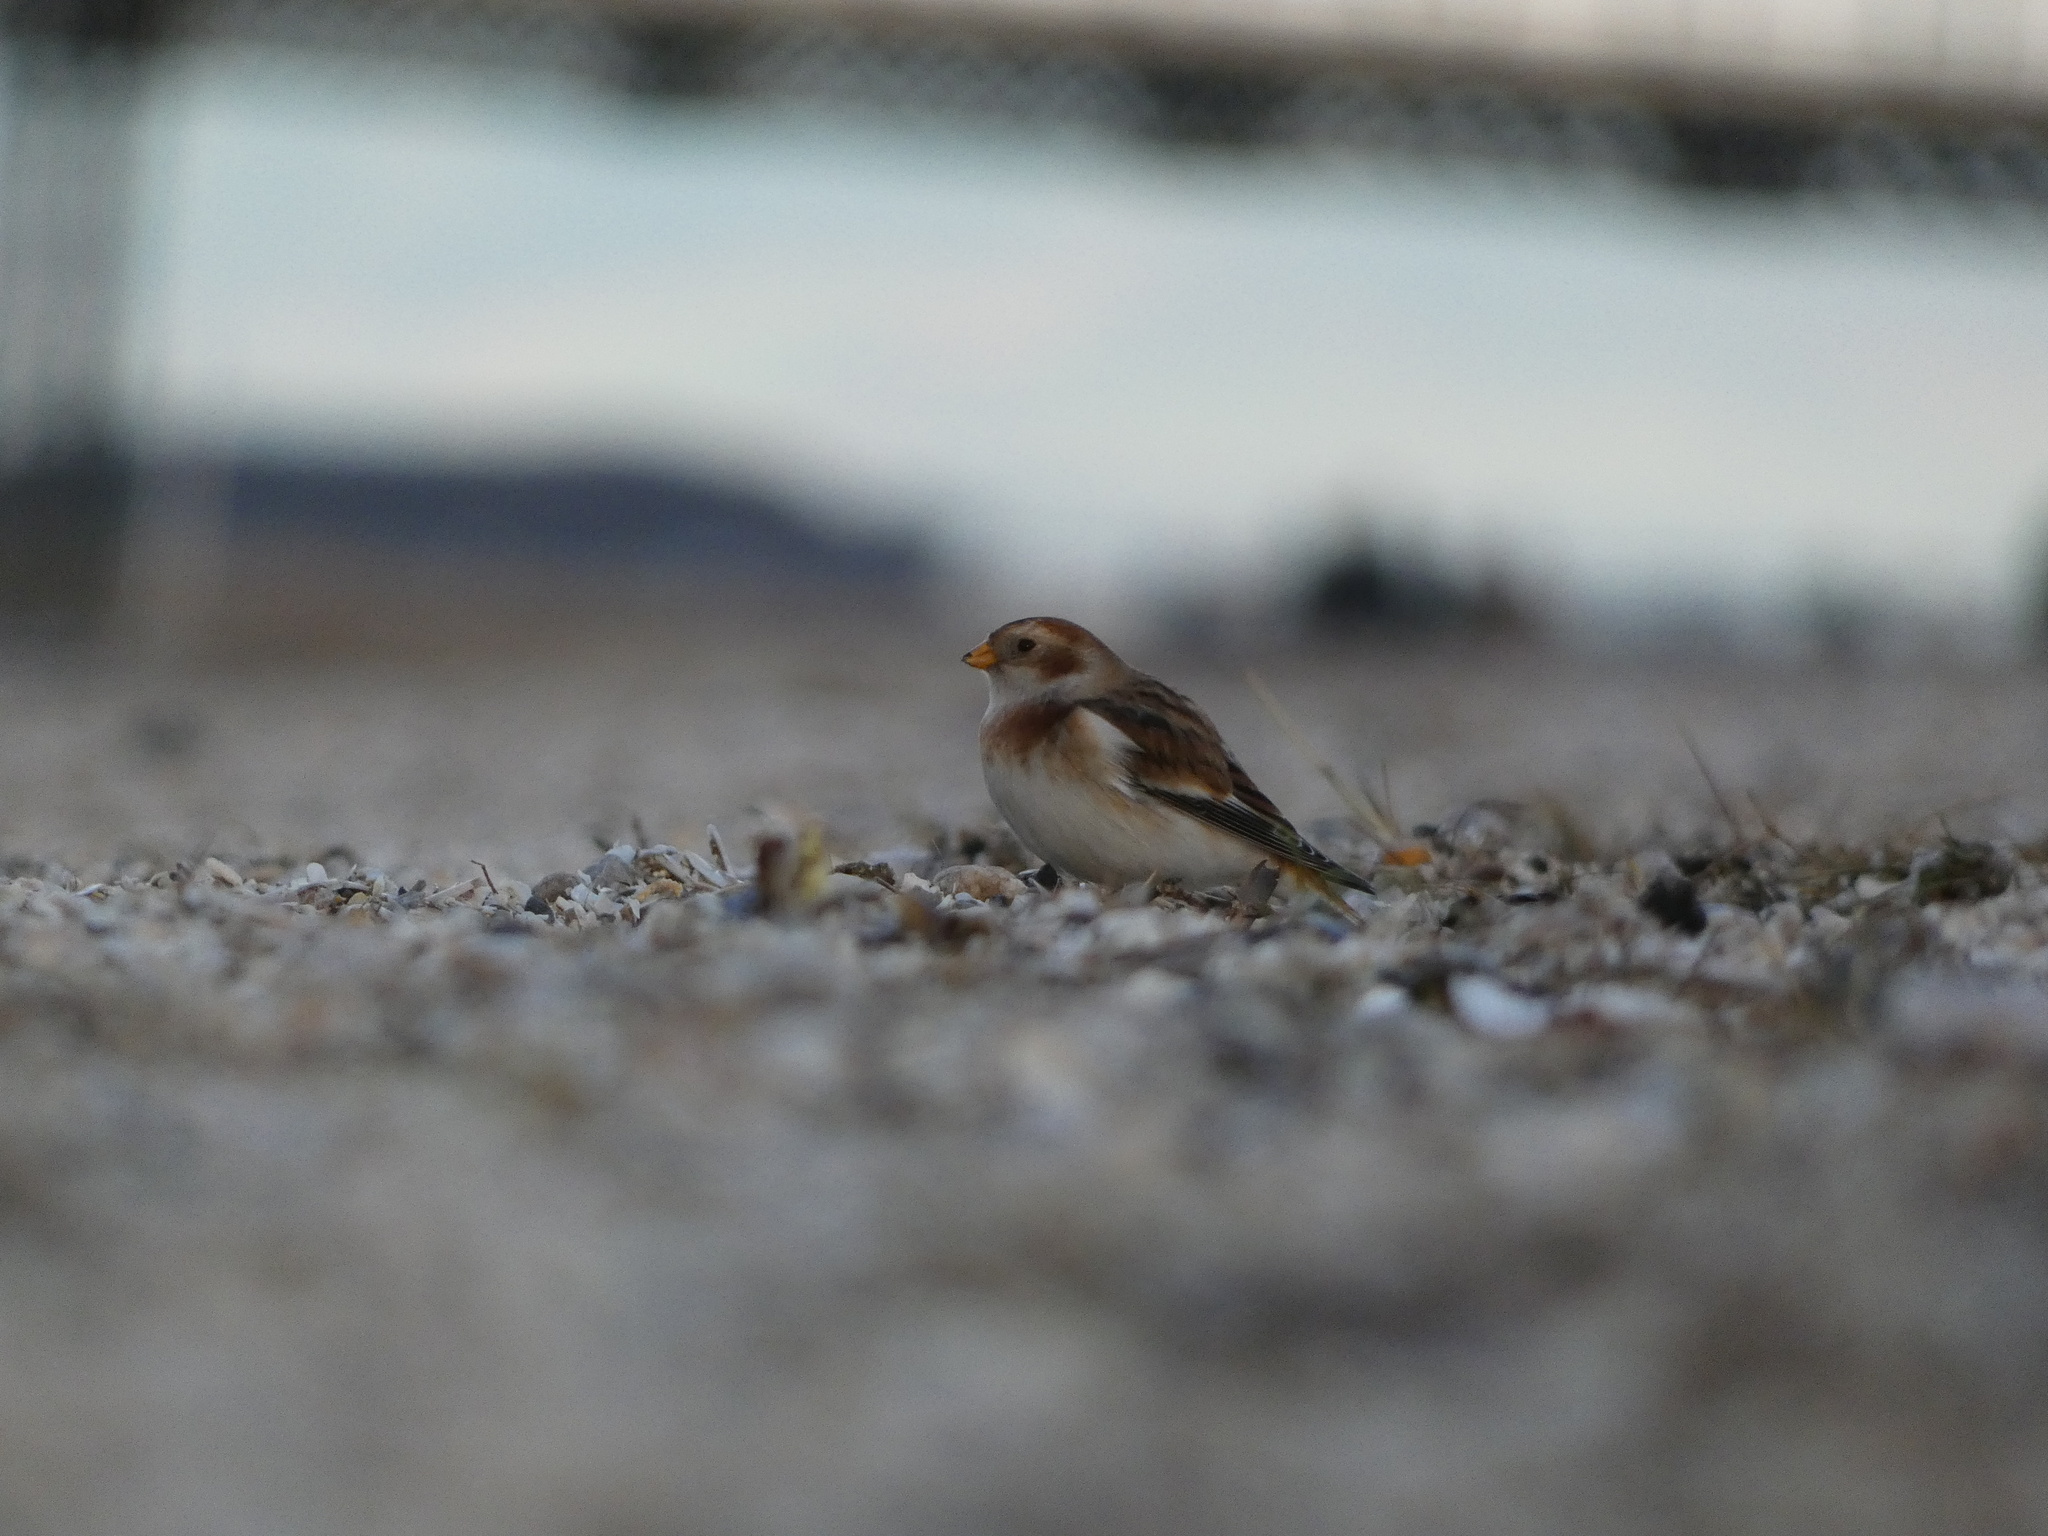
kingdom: Animalia
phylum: Chordata
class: Aves
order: Passeriformes
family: Calcariidae
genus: Plectrophenax
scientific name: Plectrophenax nivalis
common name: Snow bunting
